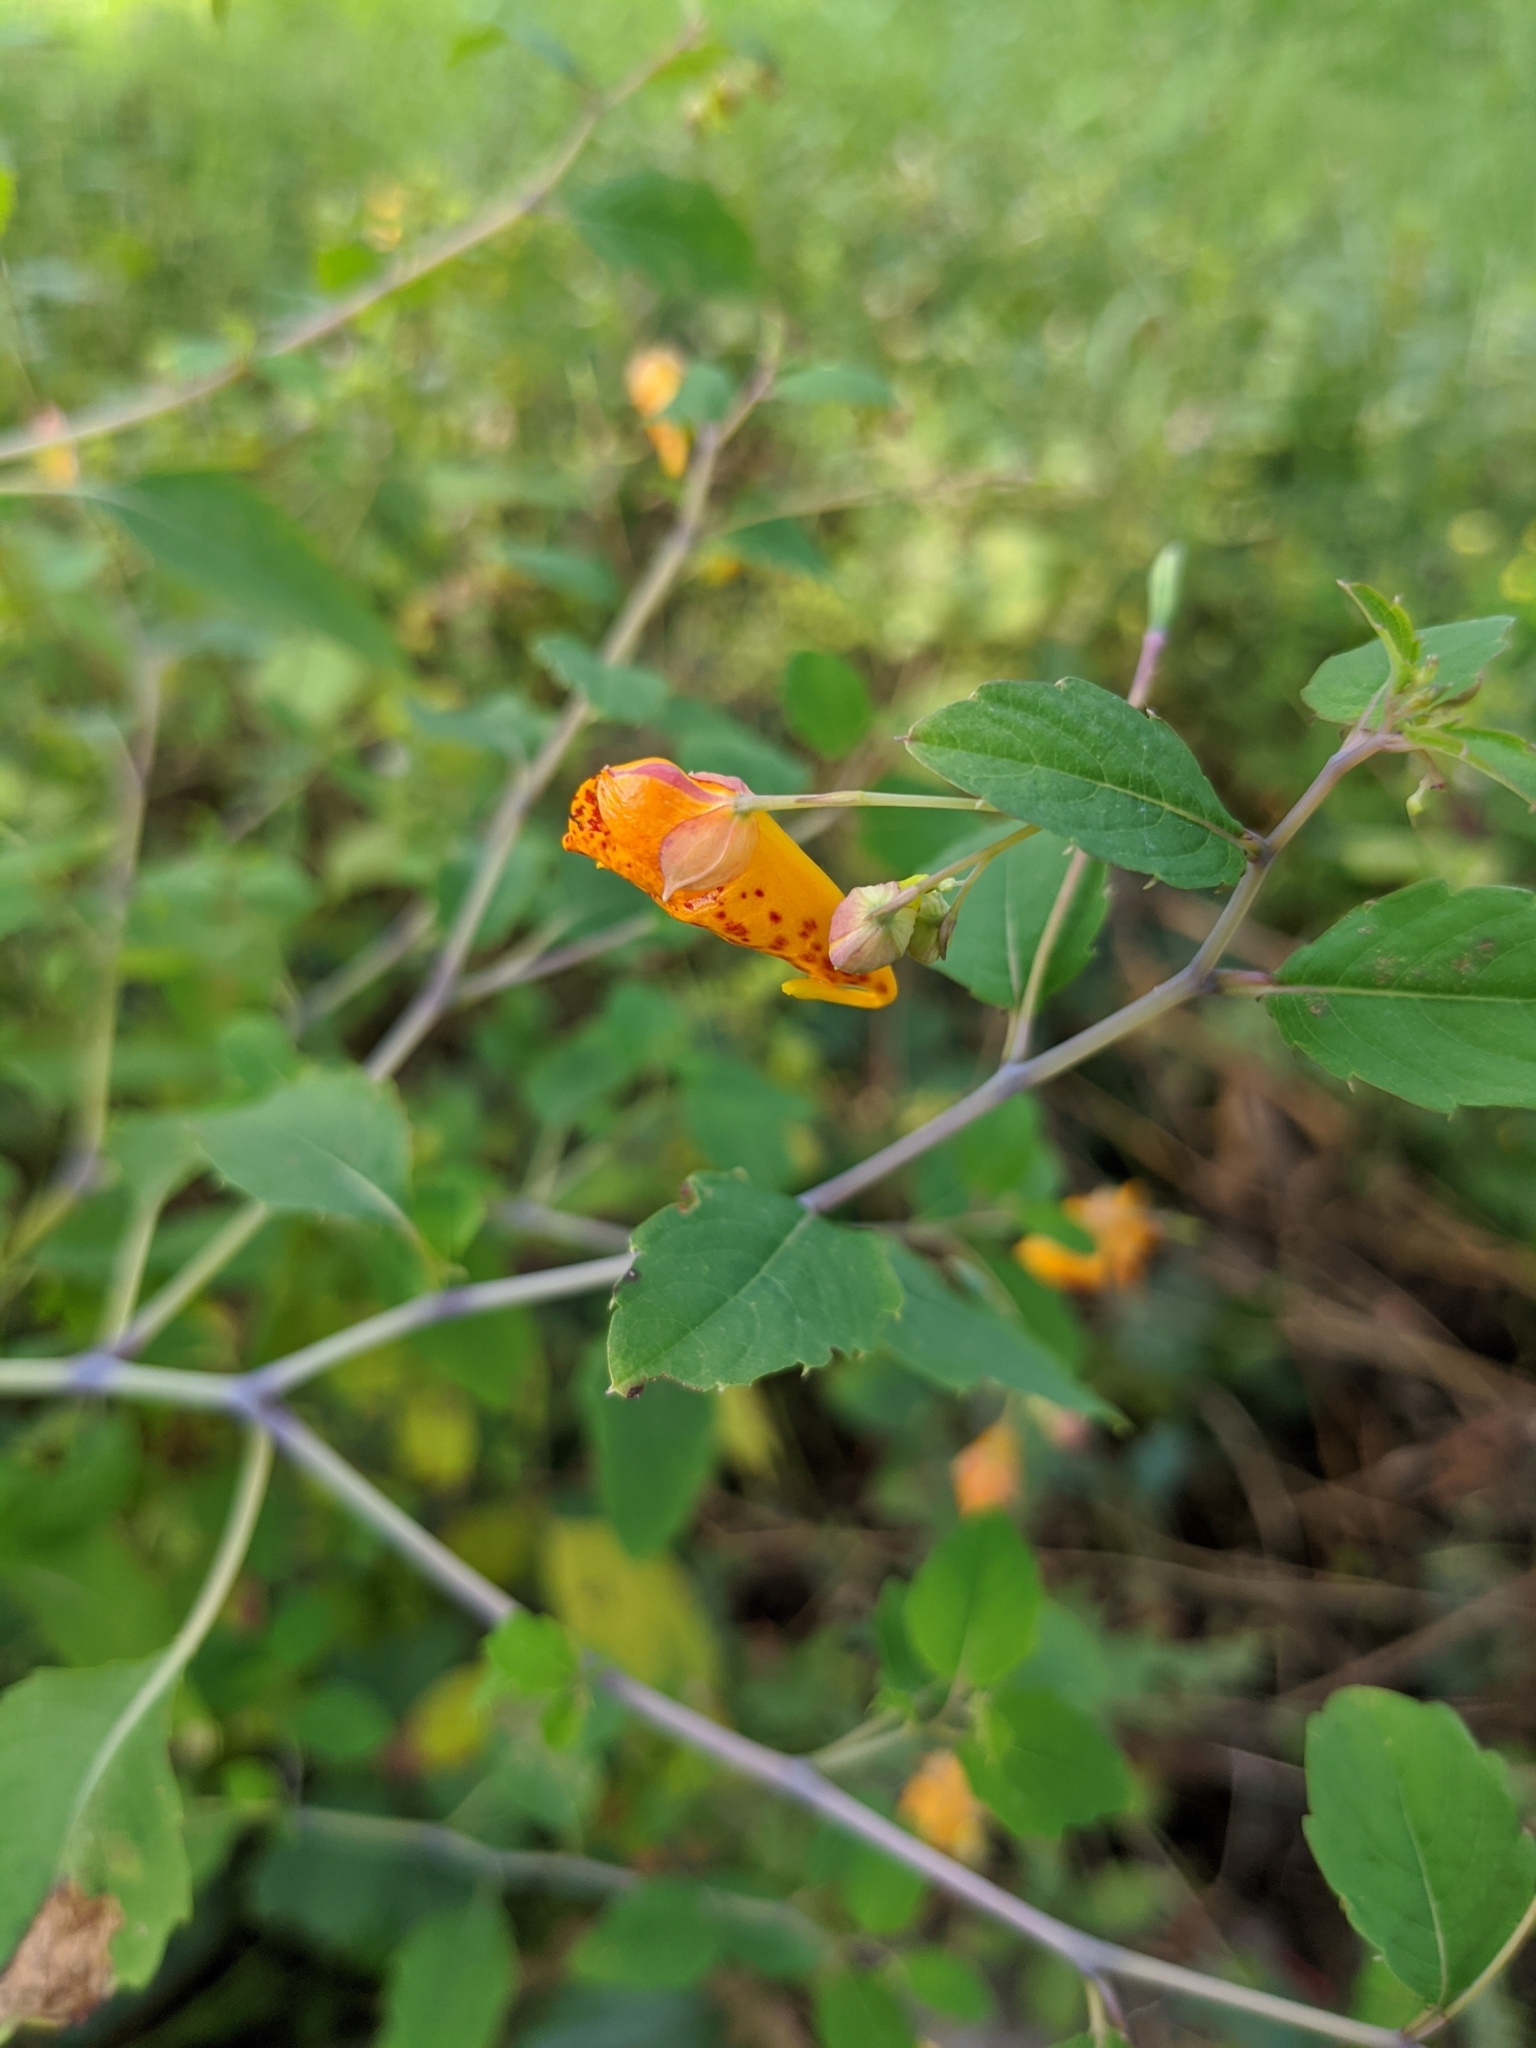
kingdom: Plantae
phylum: Tracheophyta
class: Magnoliopsida
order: Ericales
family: Balsaminaceae
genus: Impatiens
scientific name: Impatiens capensis
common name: Orange balsam
